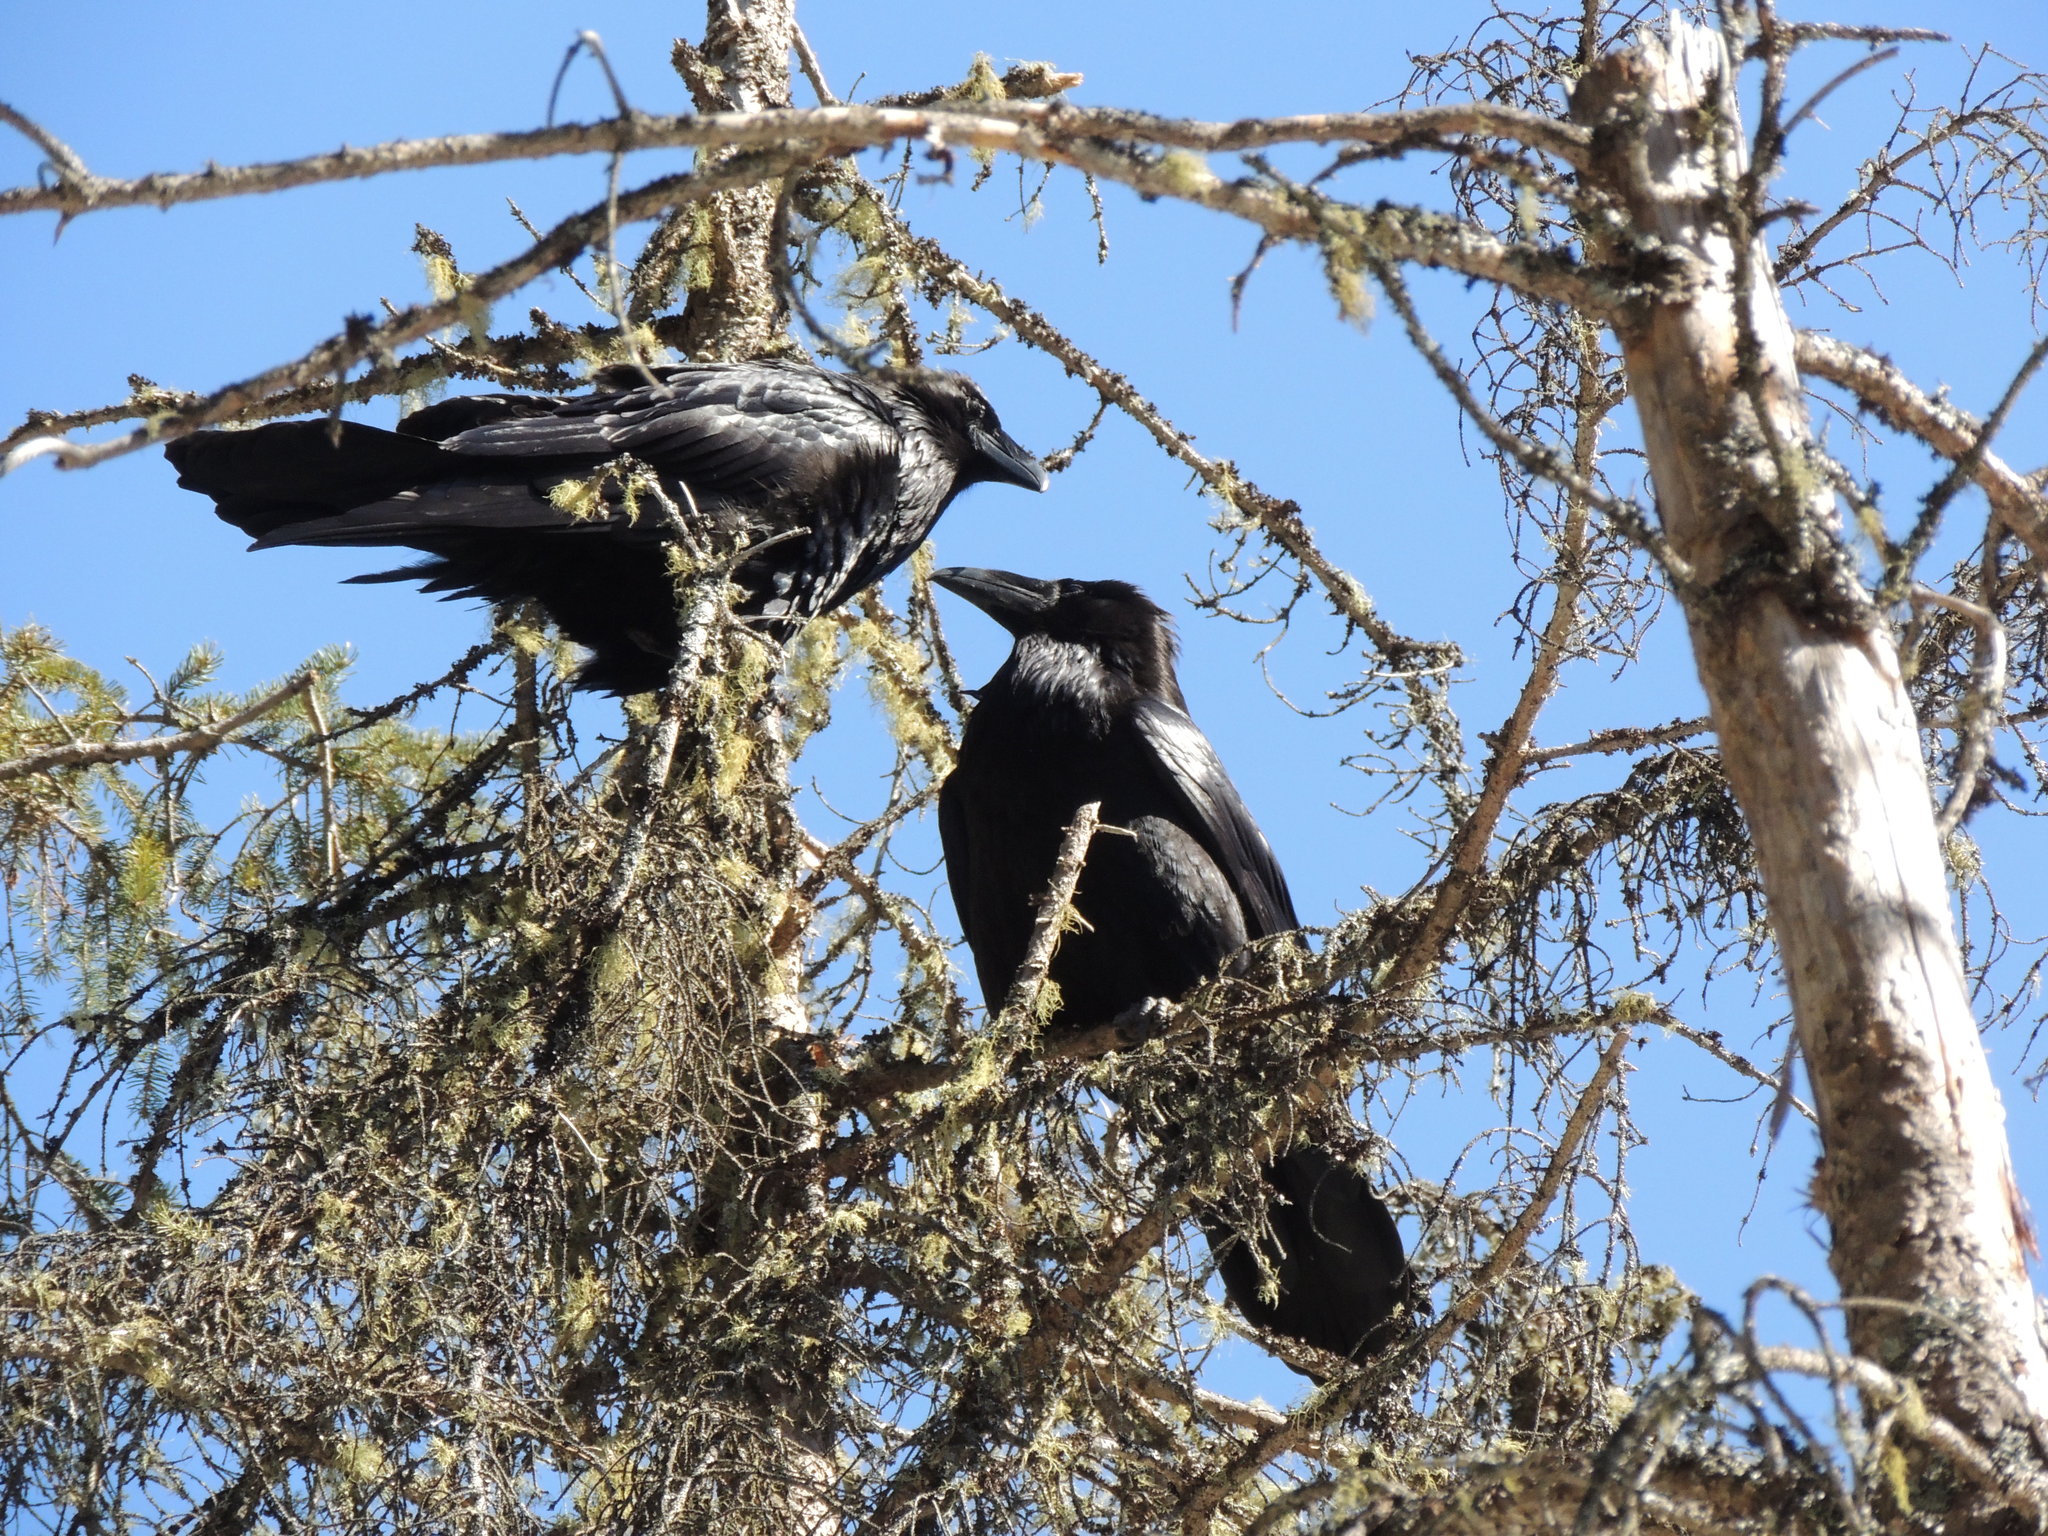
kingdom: Animalia
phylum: Chordata
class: Aves
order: Passeriformes
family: Corvidae
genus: Corvus
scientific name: Corvus corax
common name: Common raven
